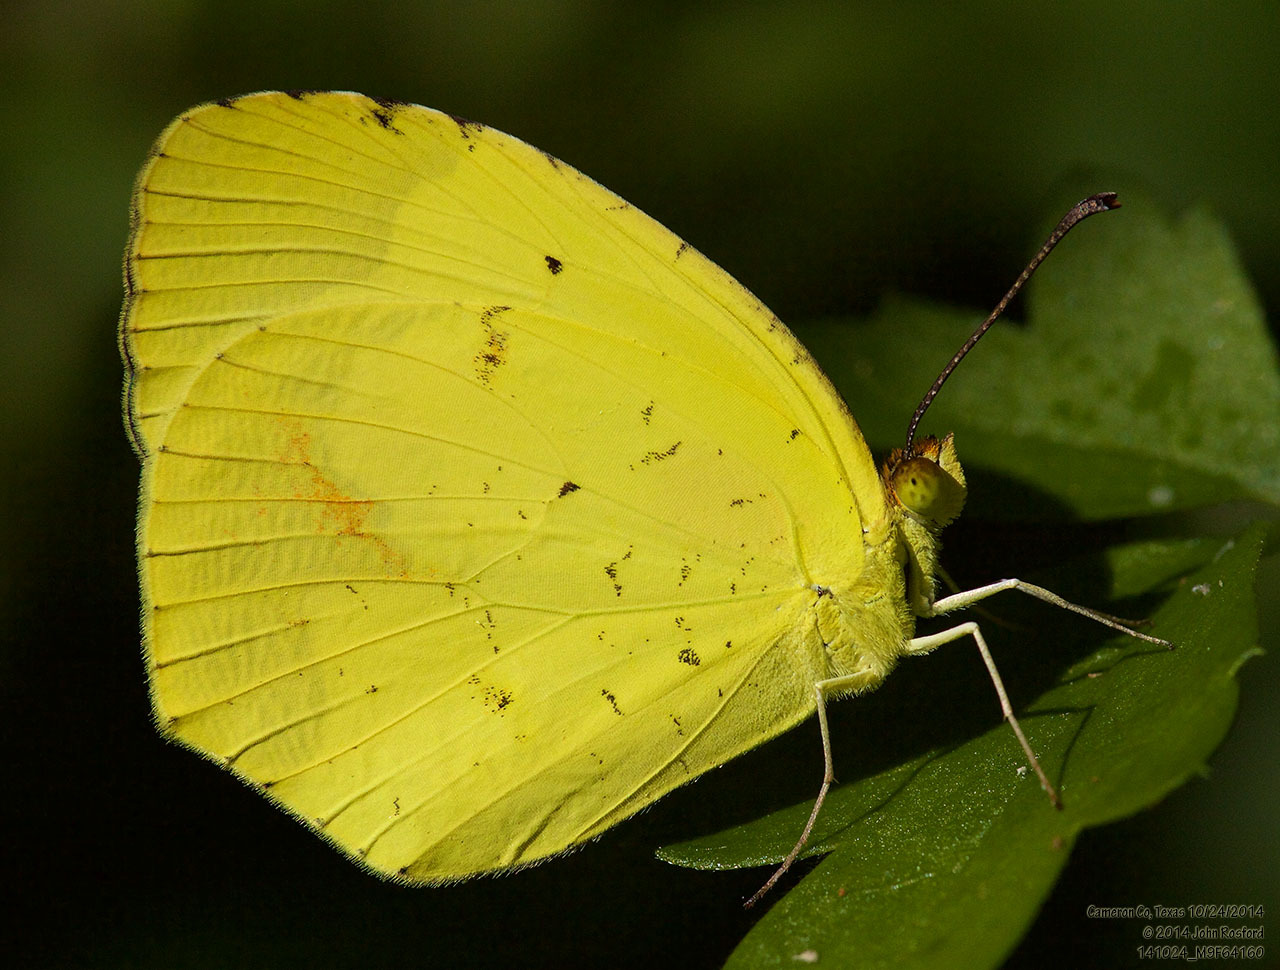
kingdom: Animalia
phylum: Arthropoda
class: Insecta
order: Lepidoptera
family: Pieridae
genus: Abaeis
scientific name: Abaeis boisduvaliana
